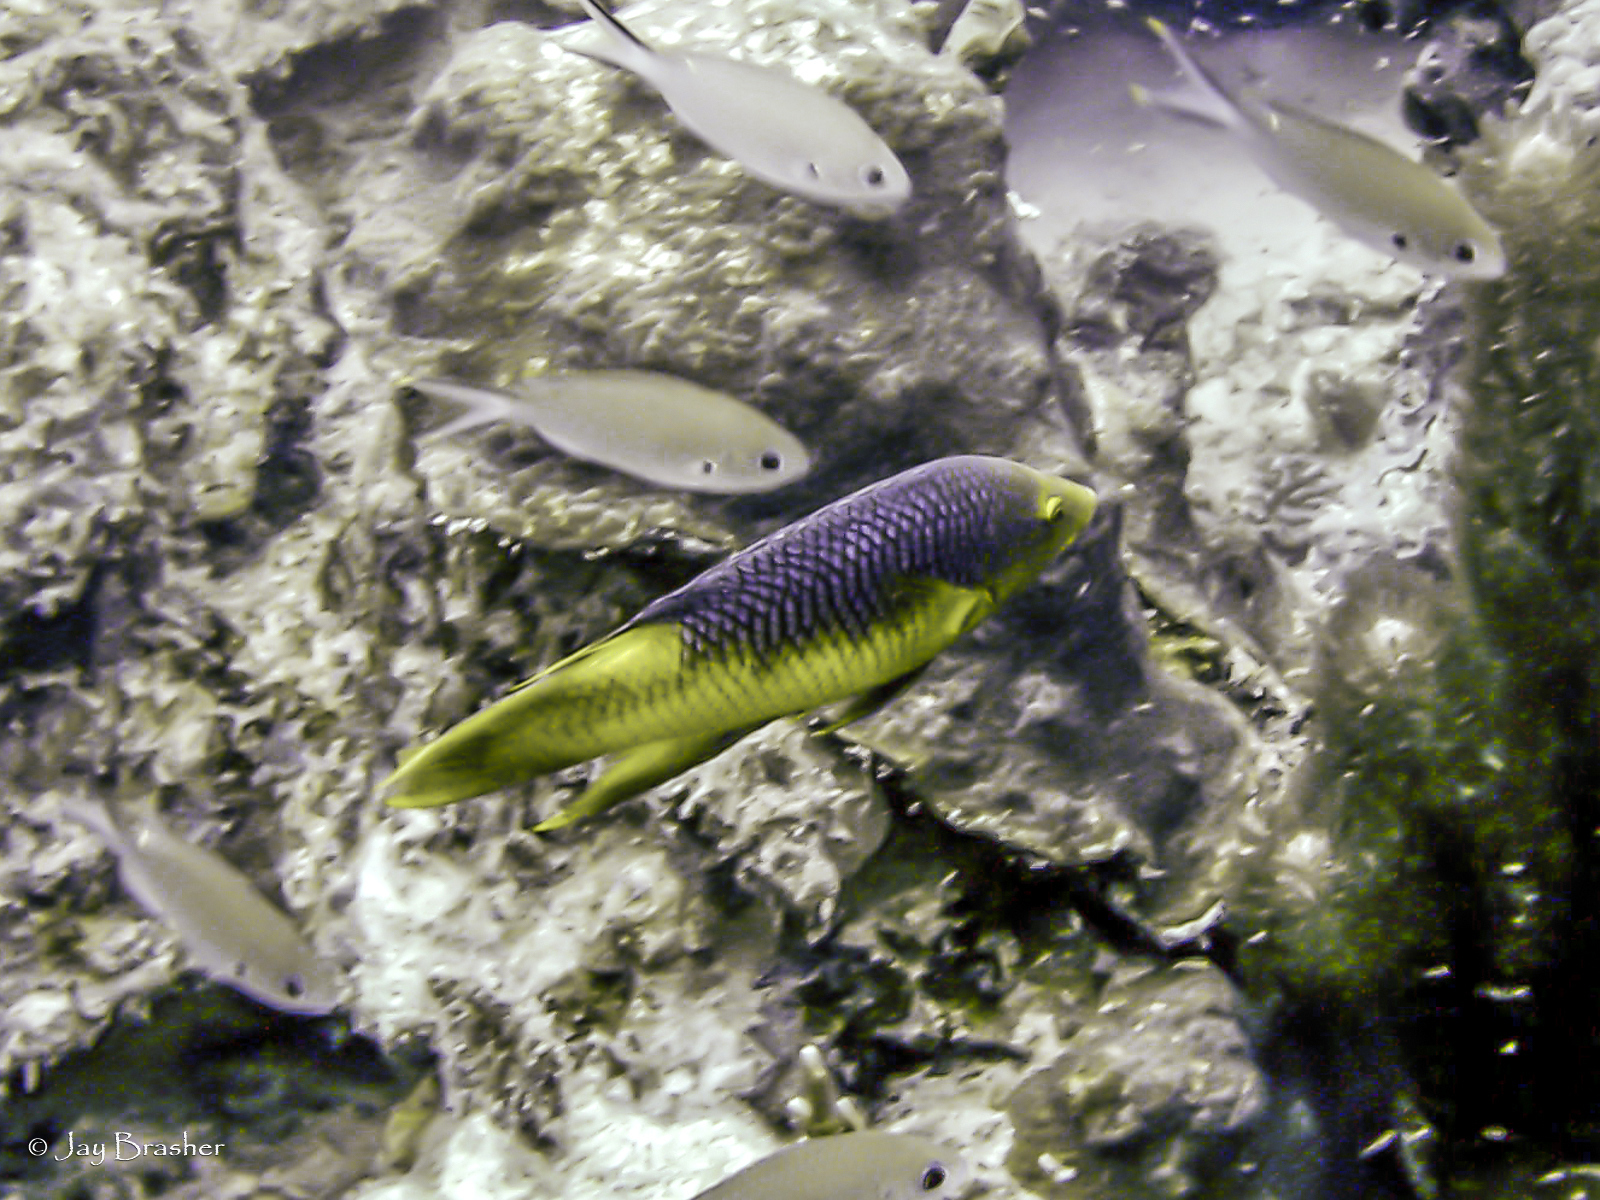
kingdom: Animalia
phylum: Chordata
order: Perciformes
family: Pomacentridae
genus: Chromis
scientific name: Chromis multilineata
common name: Brown chromis
